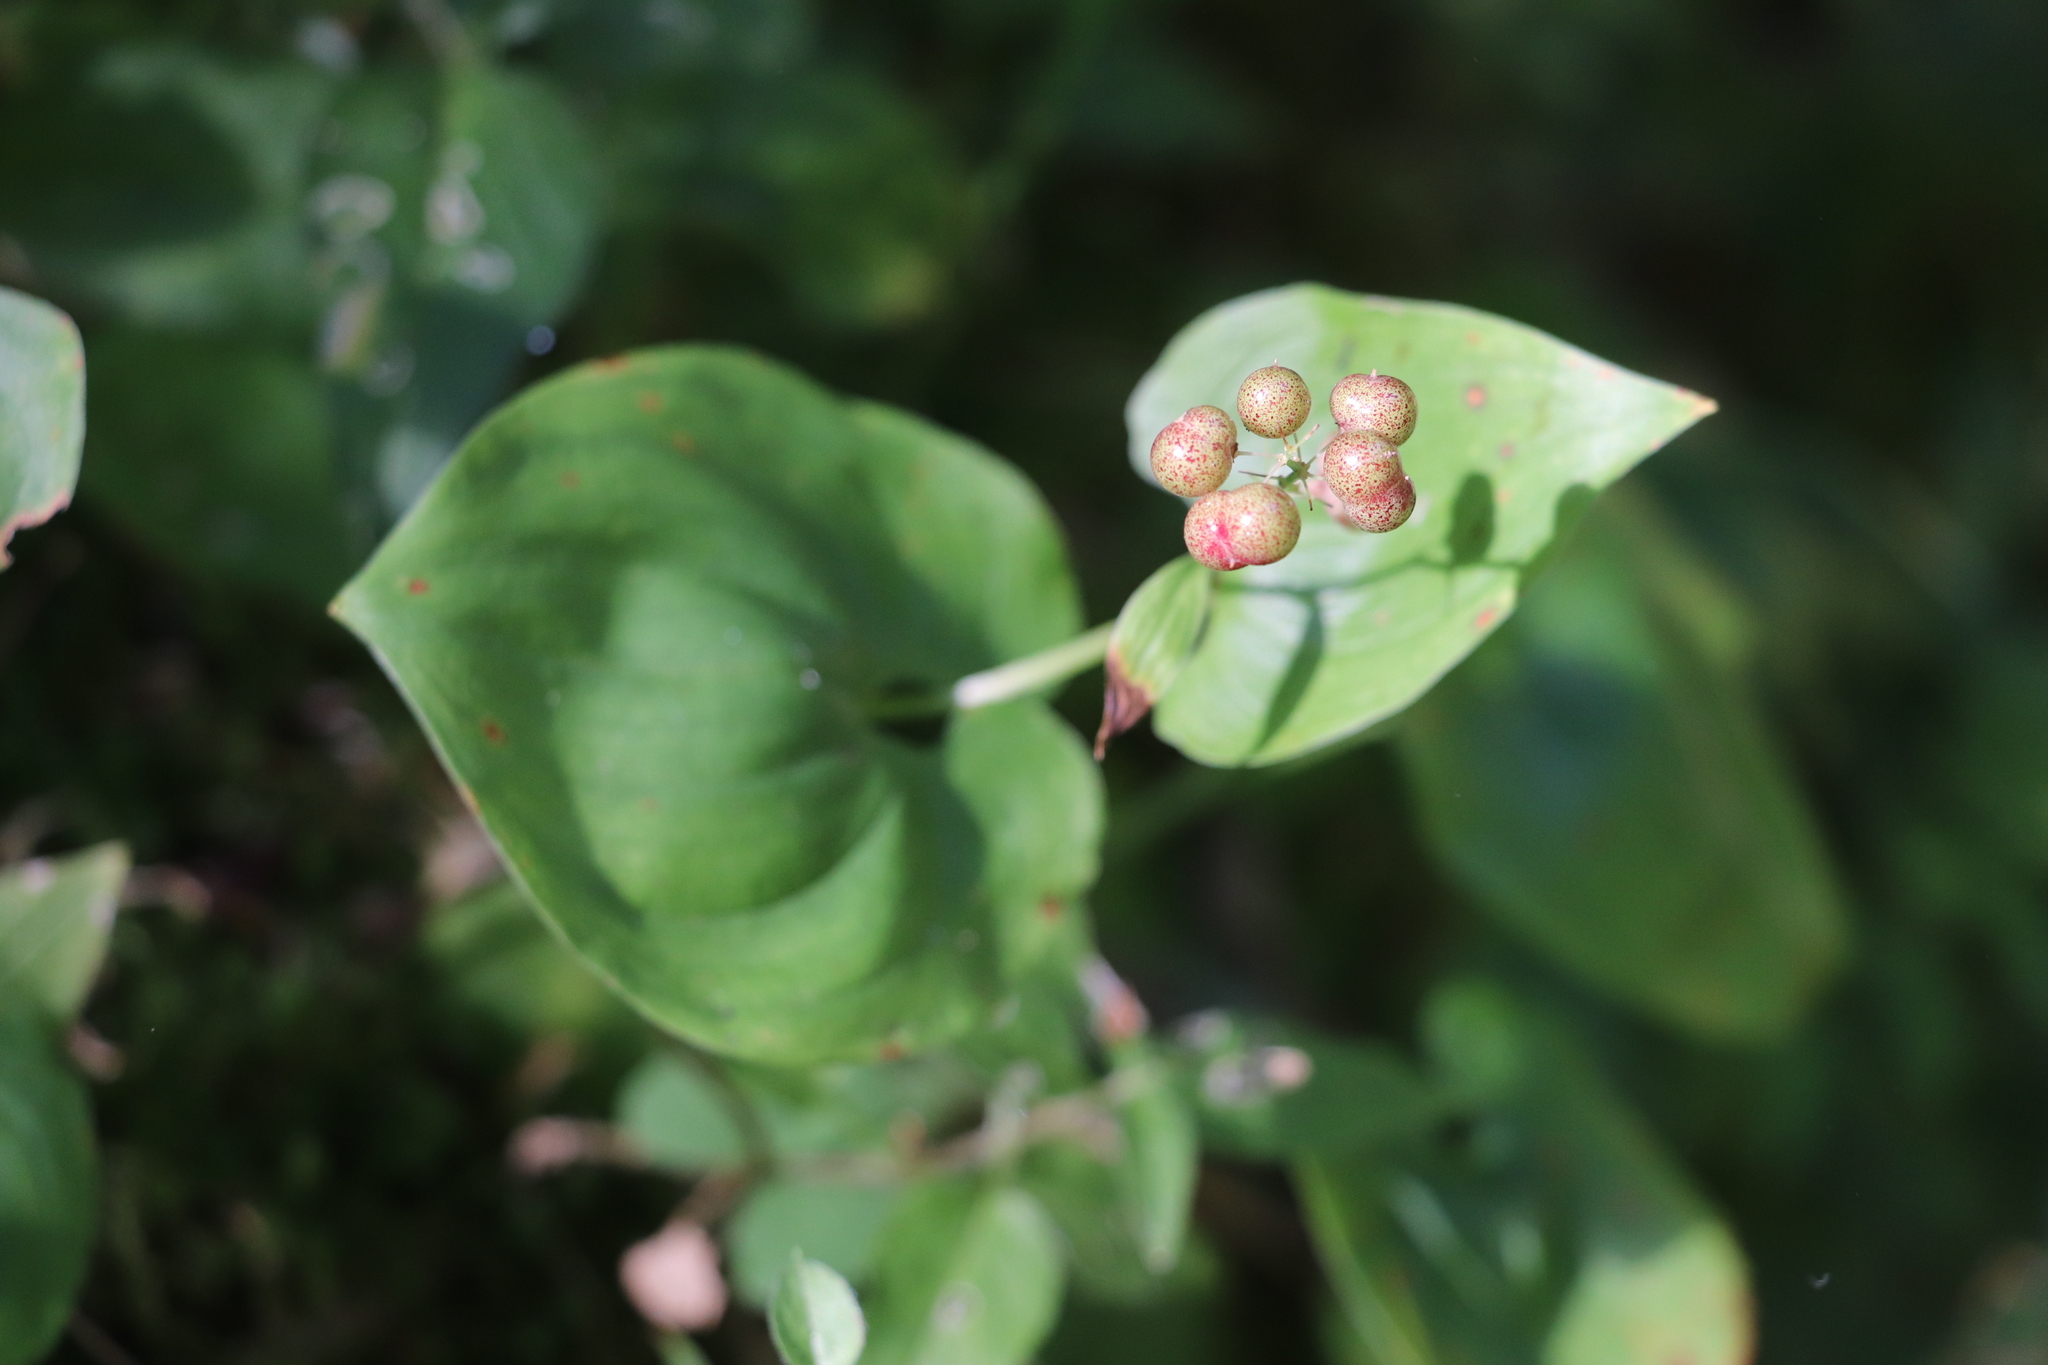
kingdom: Plantae
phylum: Tracheophyta
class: Liliopsida
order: Asparagales
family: Asparagaceae
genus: Maianthemum
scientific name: Maianthemum bifolium
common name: May lily
